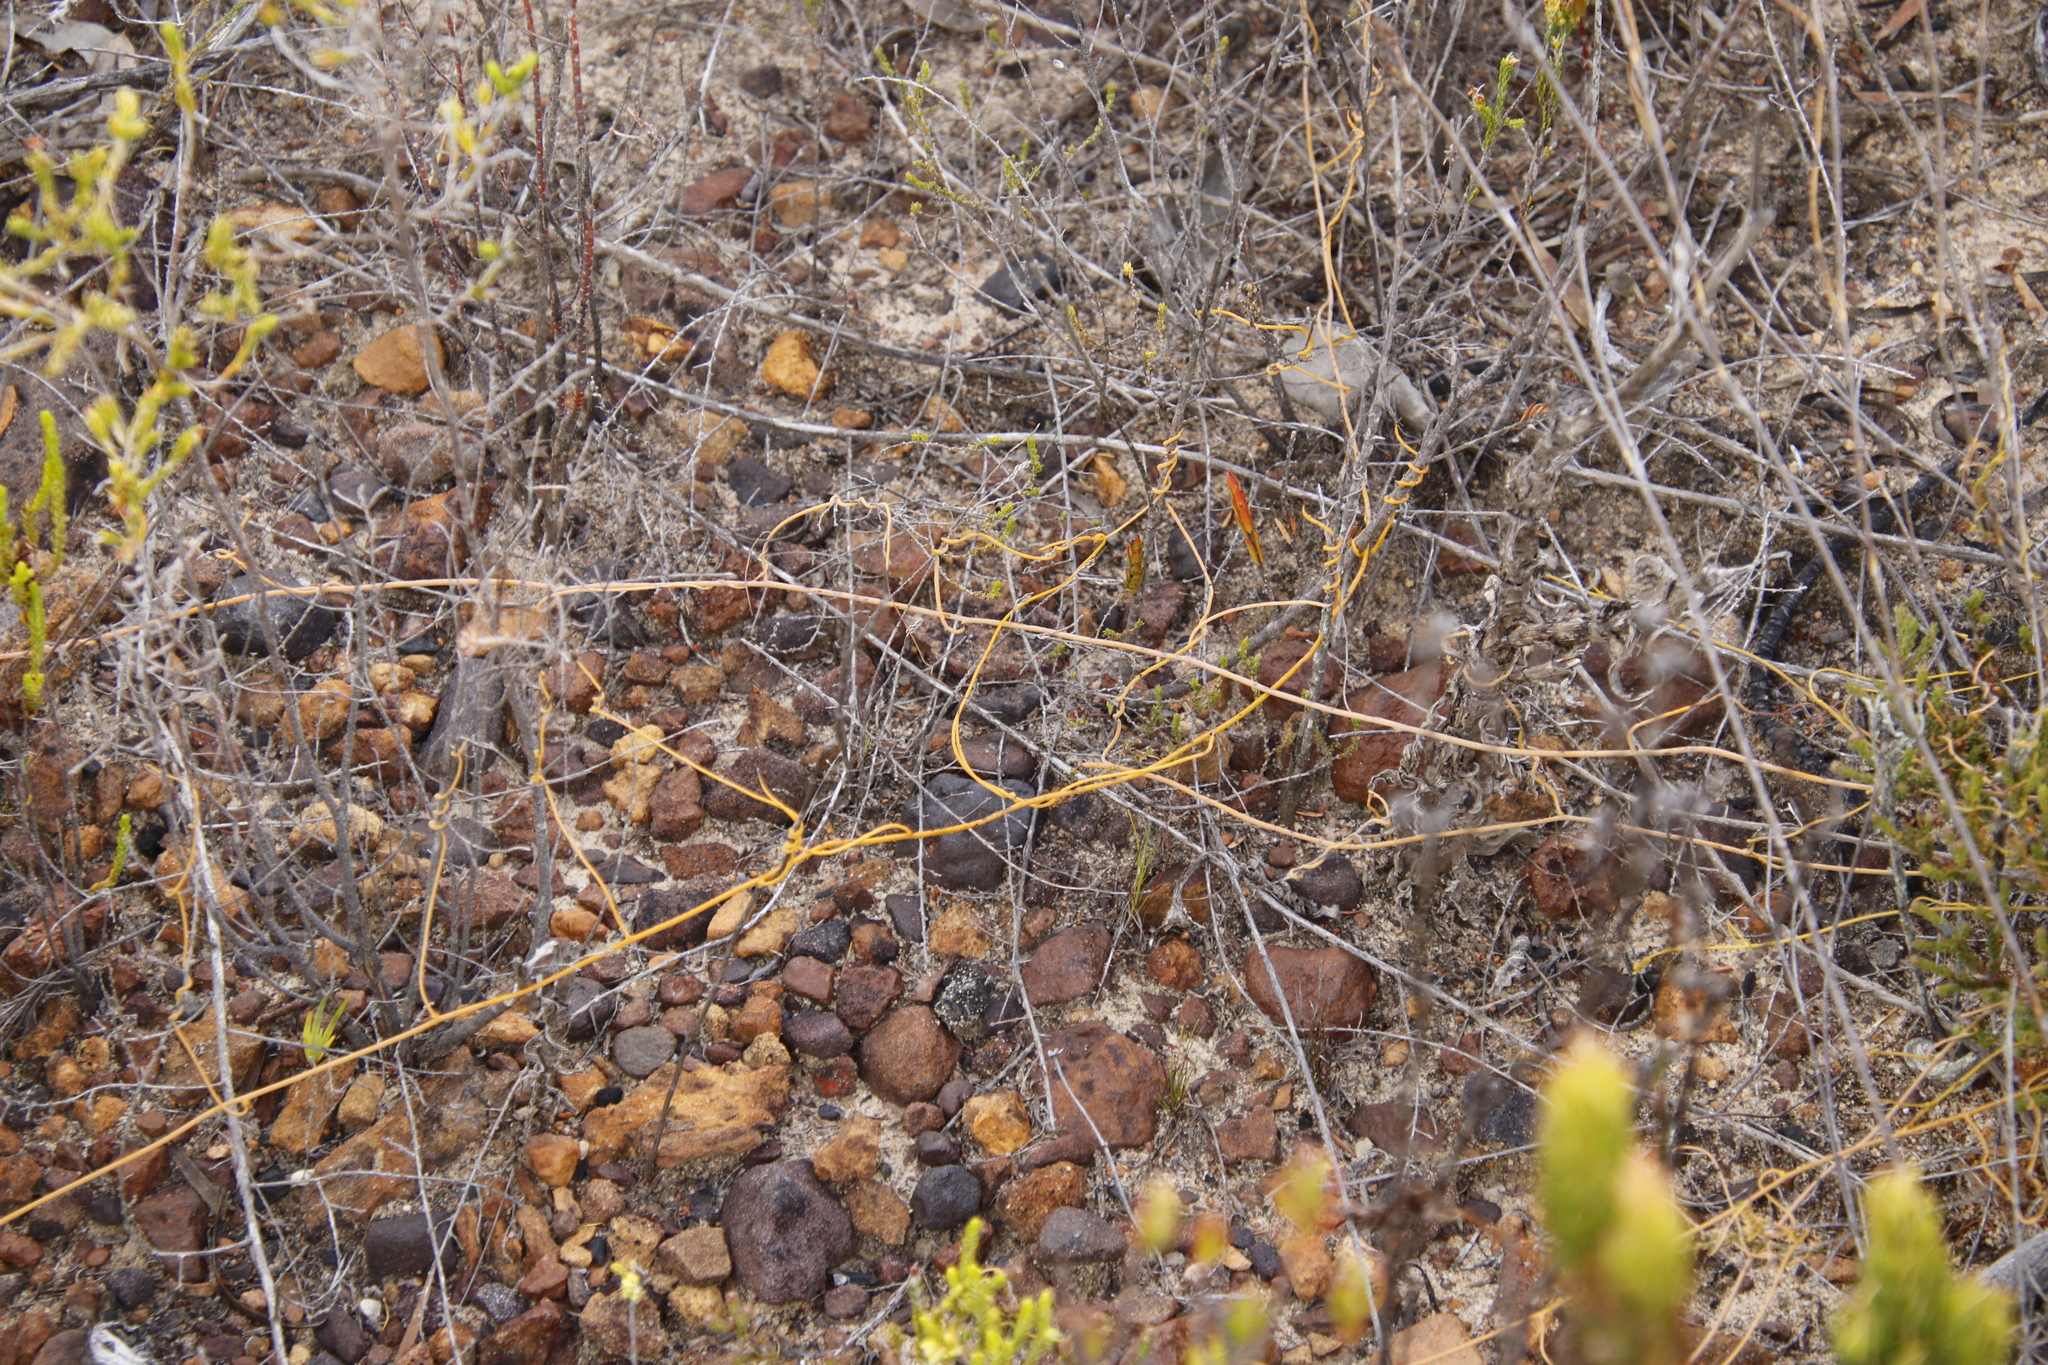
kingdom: Plantae
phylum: Tracheophyta
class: Magnoliopsida
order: Laurales
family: Lauraceae
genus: Cassytha
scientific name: Cassytha ciliolata
